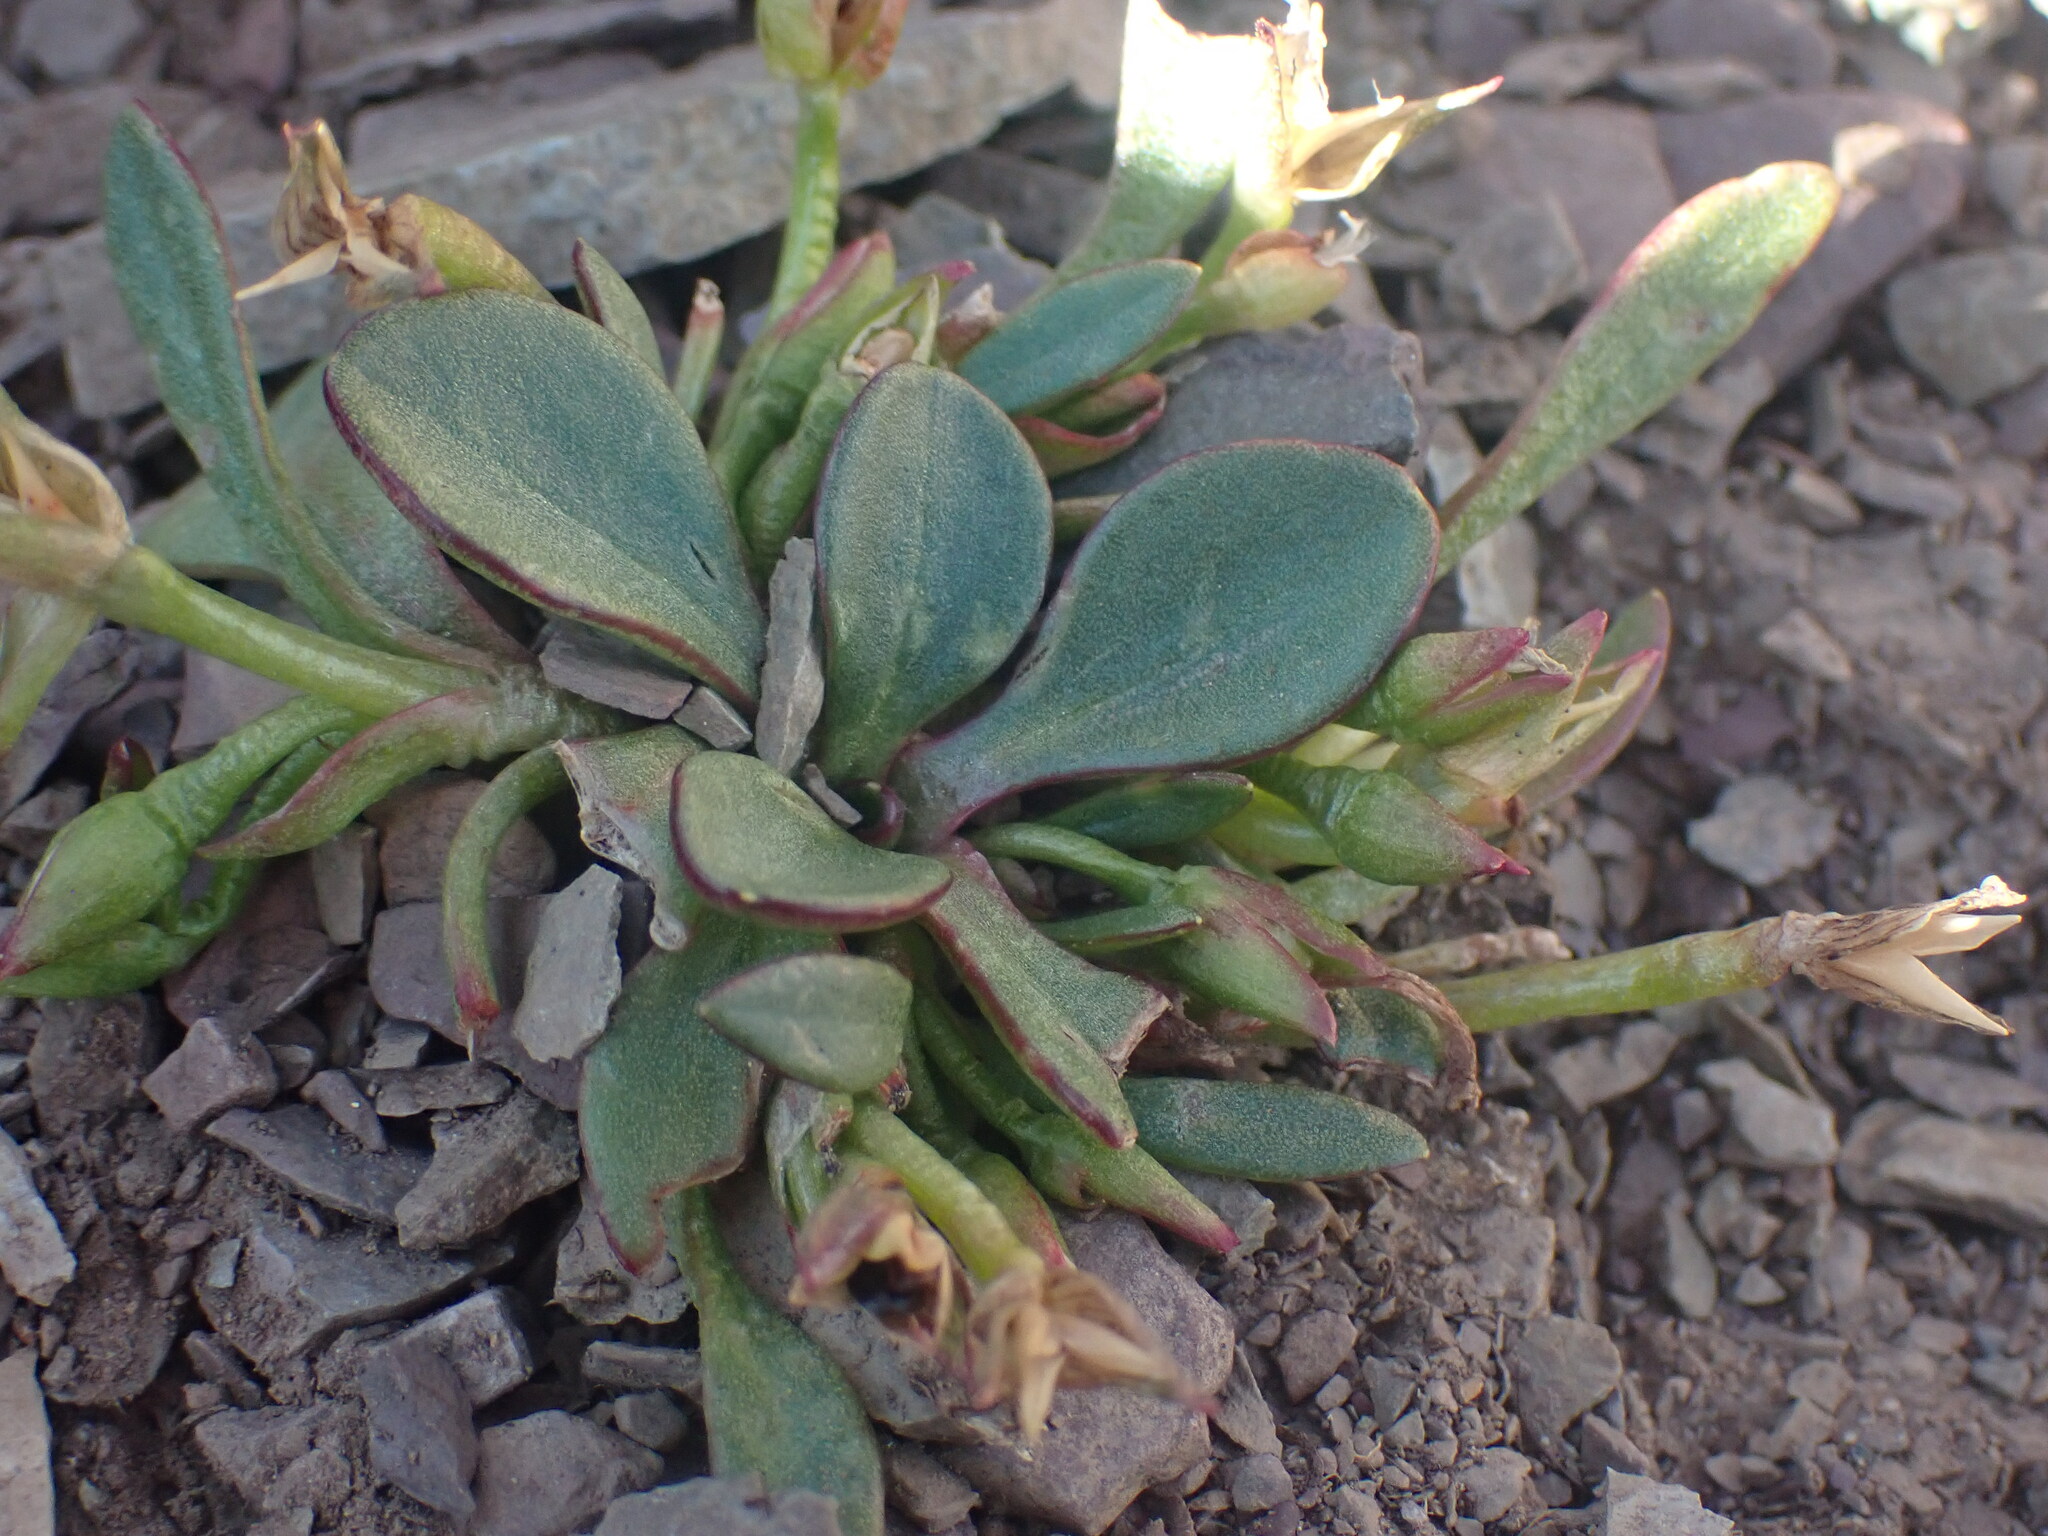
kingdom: Plantae
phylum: Tracheophyta
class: Magnoliopsida
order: Caryophyllales
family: Montiaceae
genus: Claytonia
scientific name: Claytonia megarhiza
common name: Alpine spring beauty
